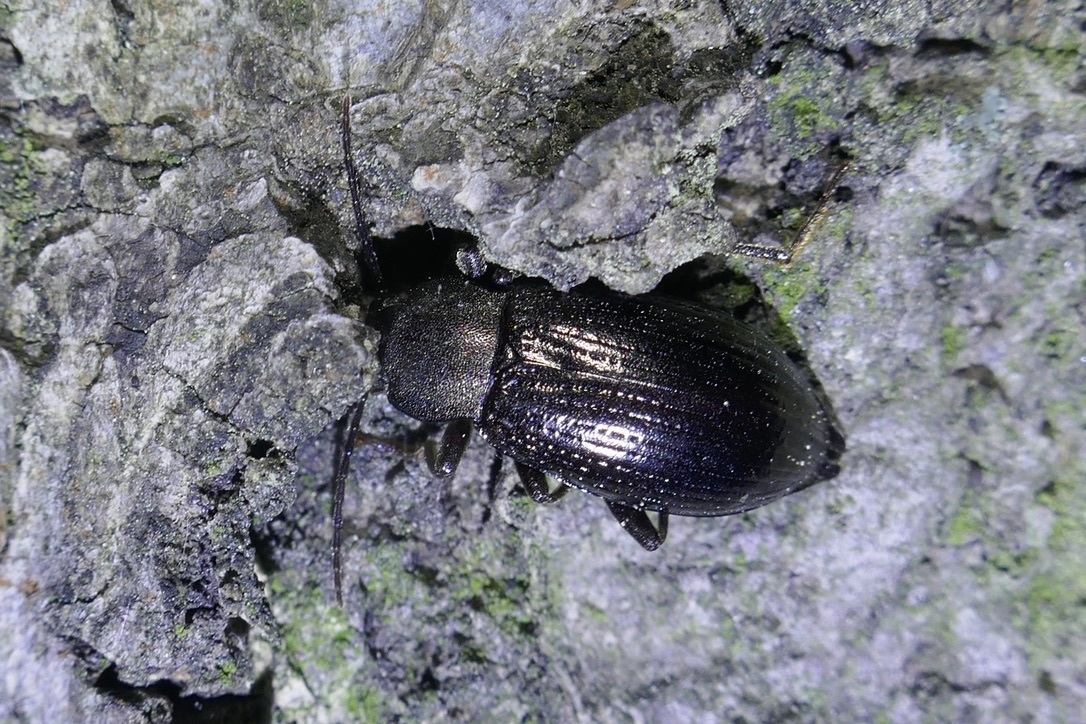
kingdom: Animalia
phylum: Arthropoda
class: Insecta
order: Coleoptera
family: Tenebrionidae
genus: Stenomax
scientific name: Stenomax aeneus
